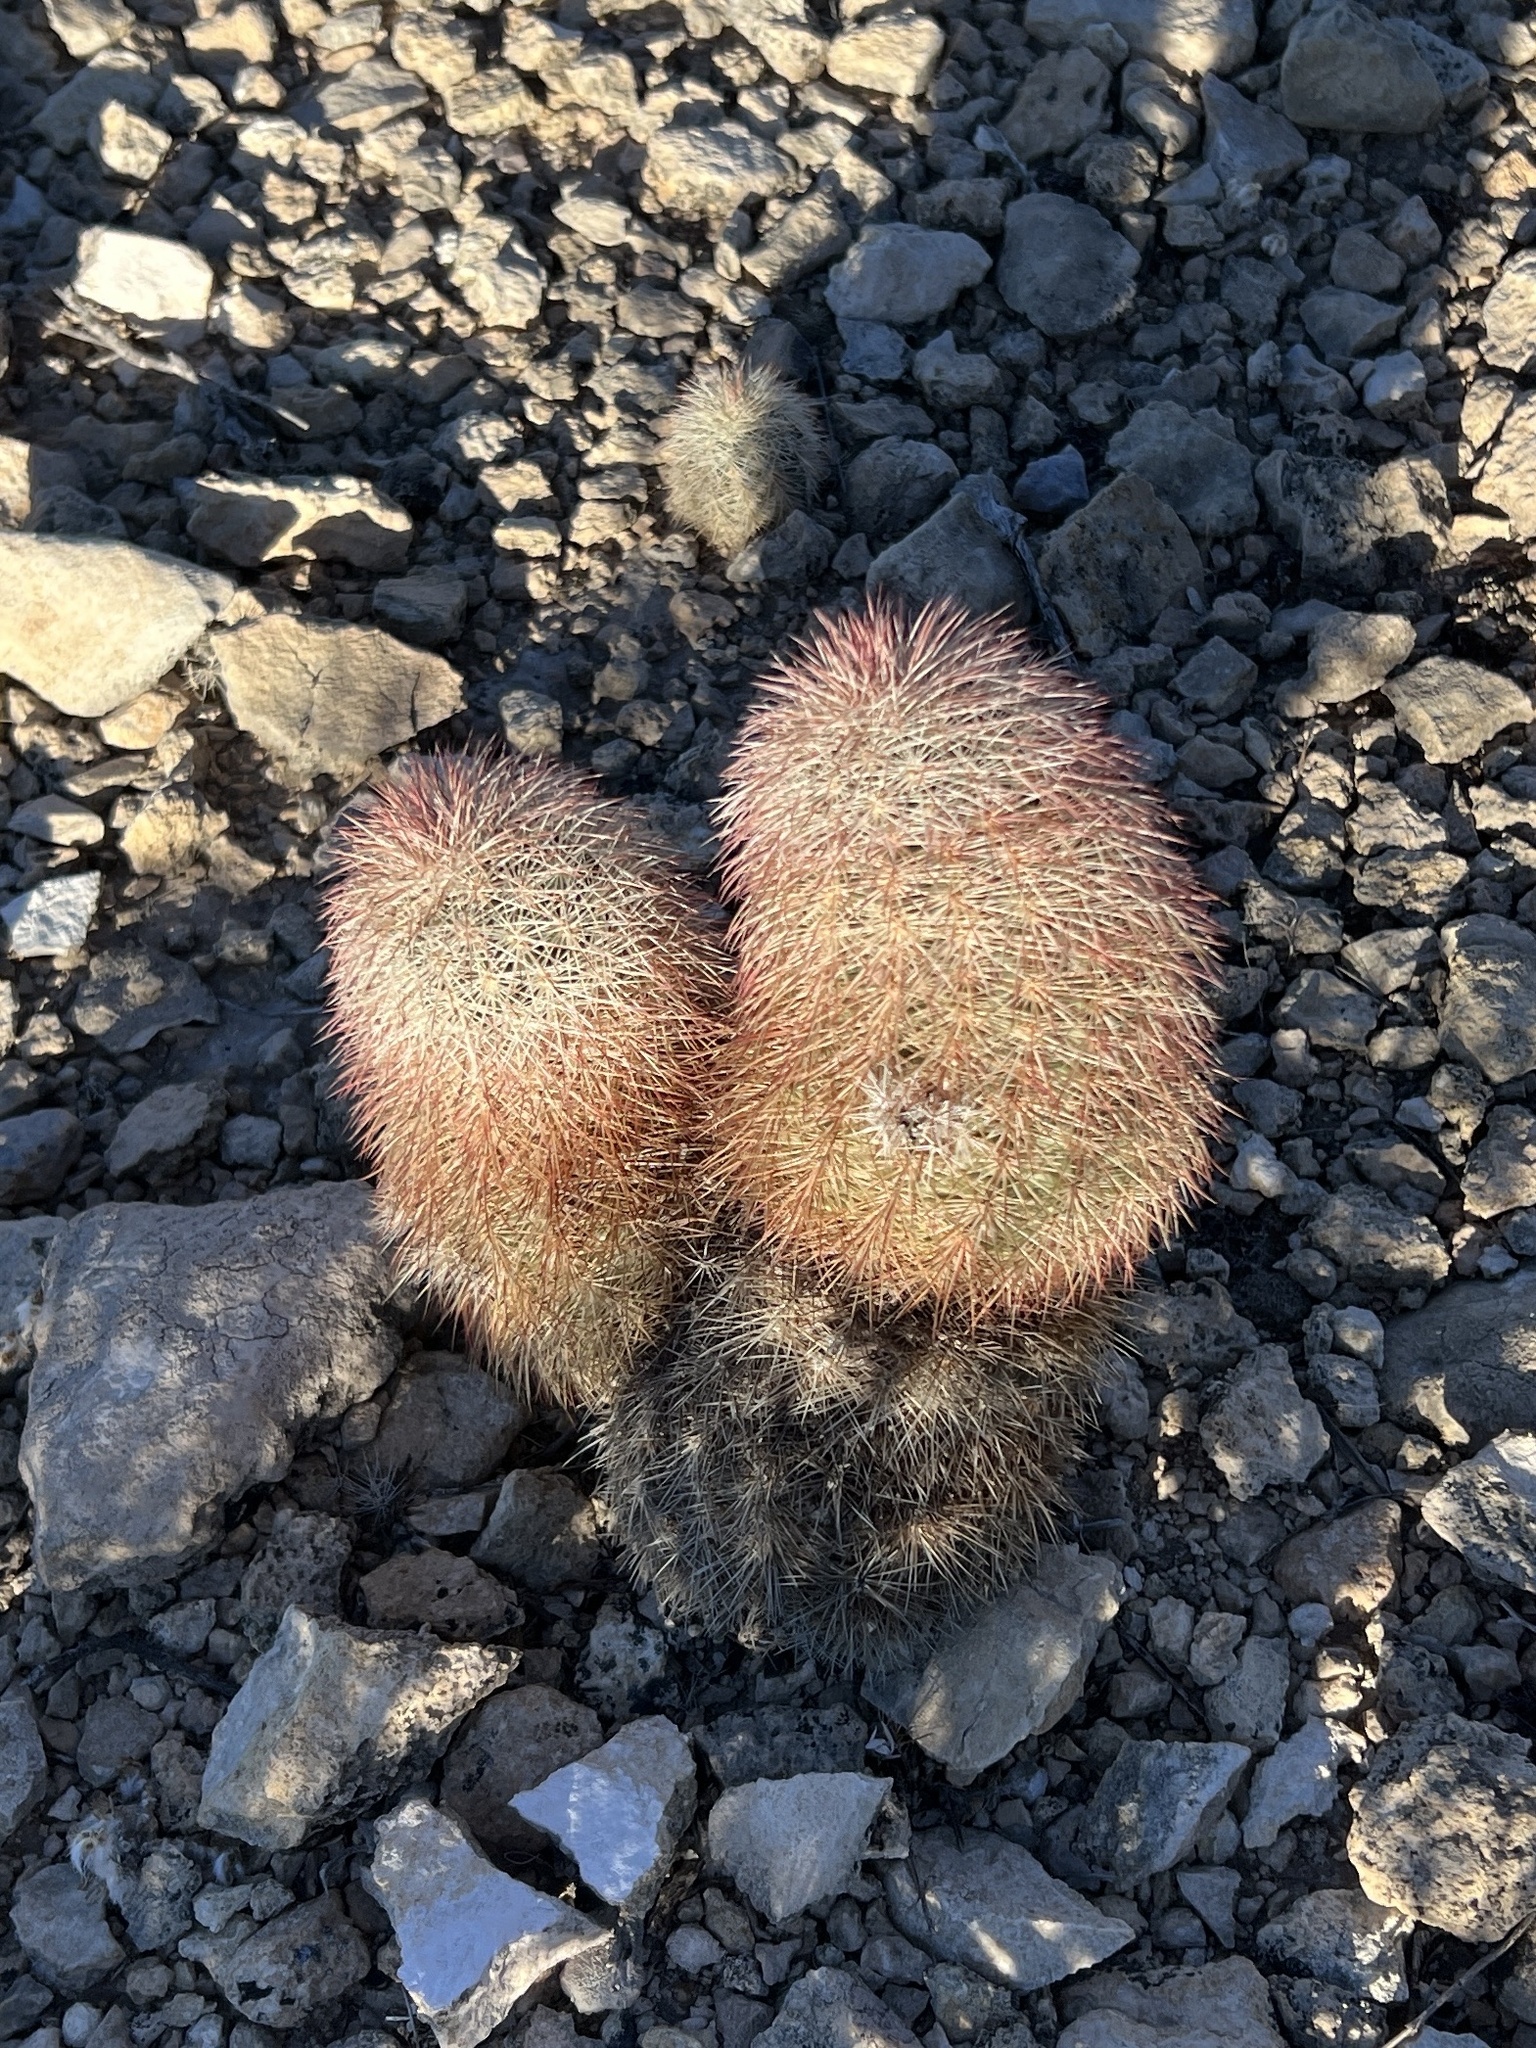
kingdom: Plantae
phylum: Tracheophyta
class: Magnoliopsida
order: Caryophyllales
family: Cactaceae
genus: Echinocereus
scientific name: Echinocereus dasyacanthus
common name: Spiny hedgehog cactus
